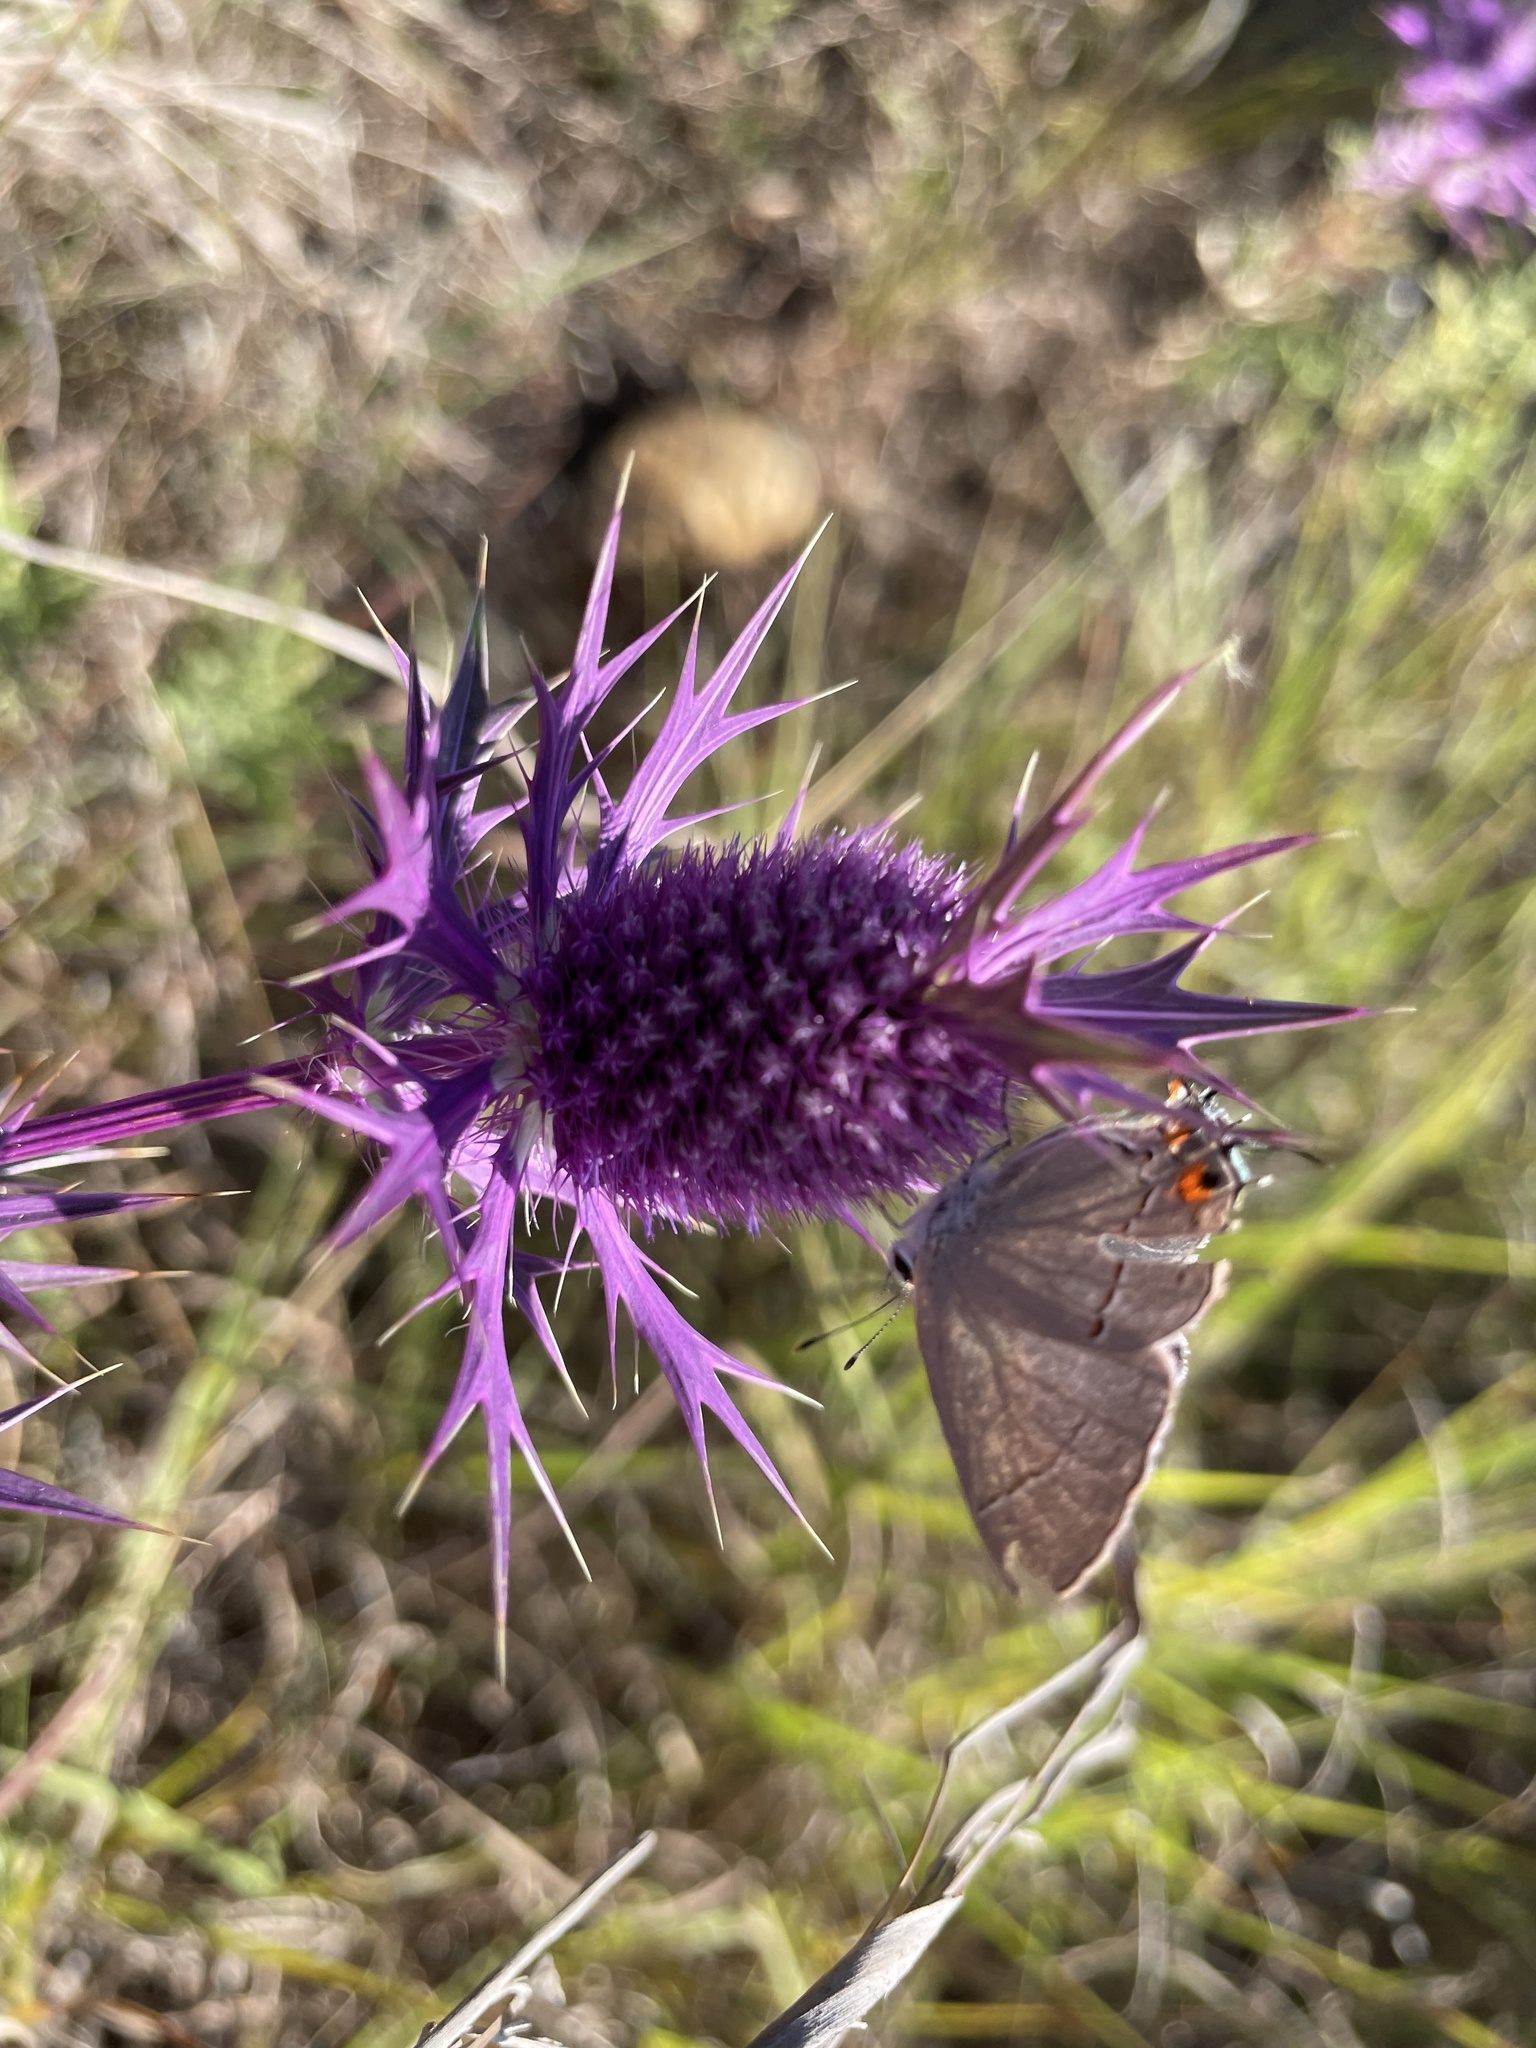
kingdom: Animalia
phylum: Arthropoda
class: Insecta
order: Lepidoptera
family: Lycaenidae
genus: Strymon
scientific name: Strymon melinus
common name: Gray hairstreak
